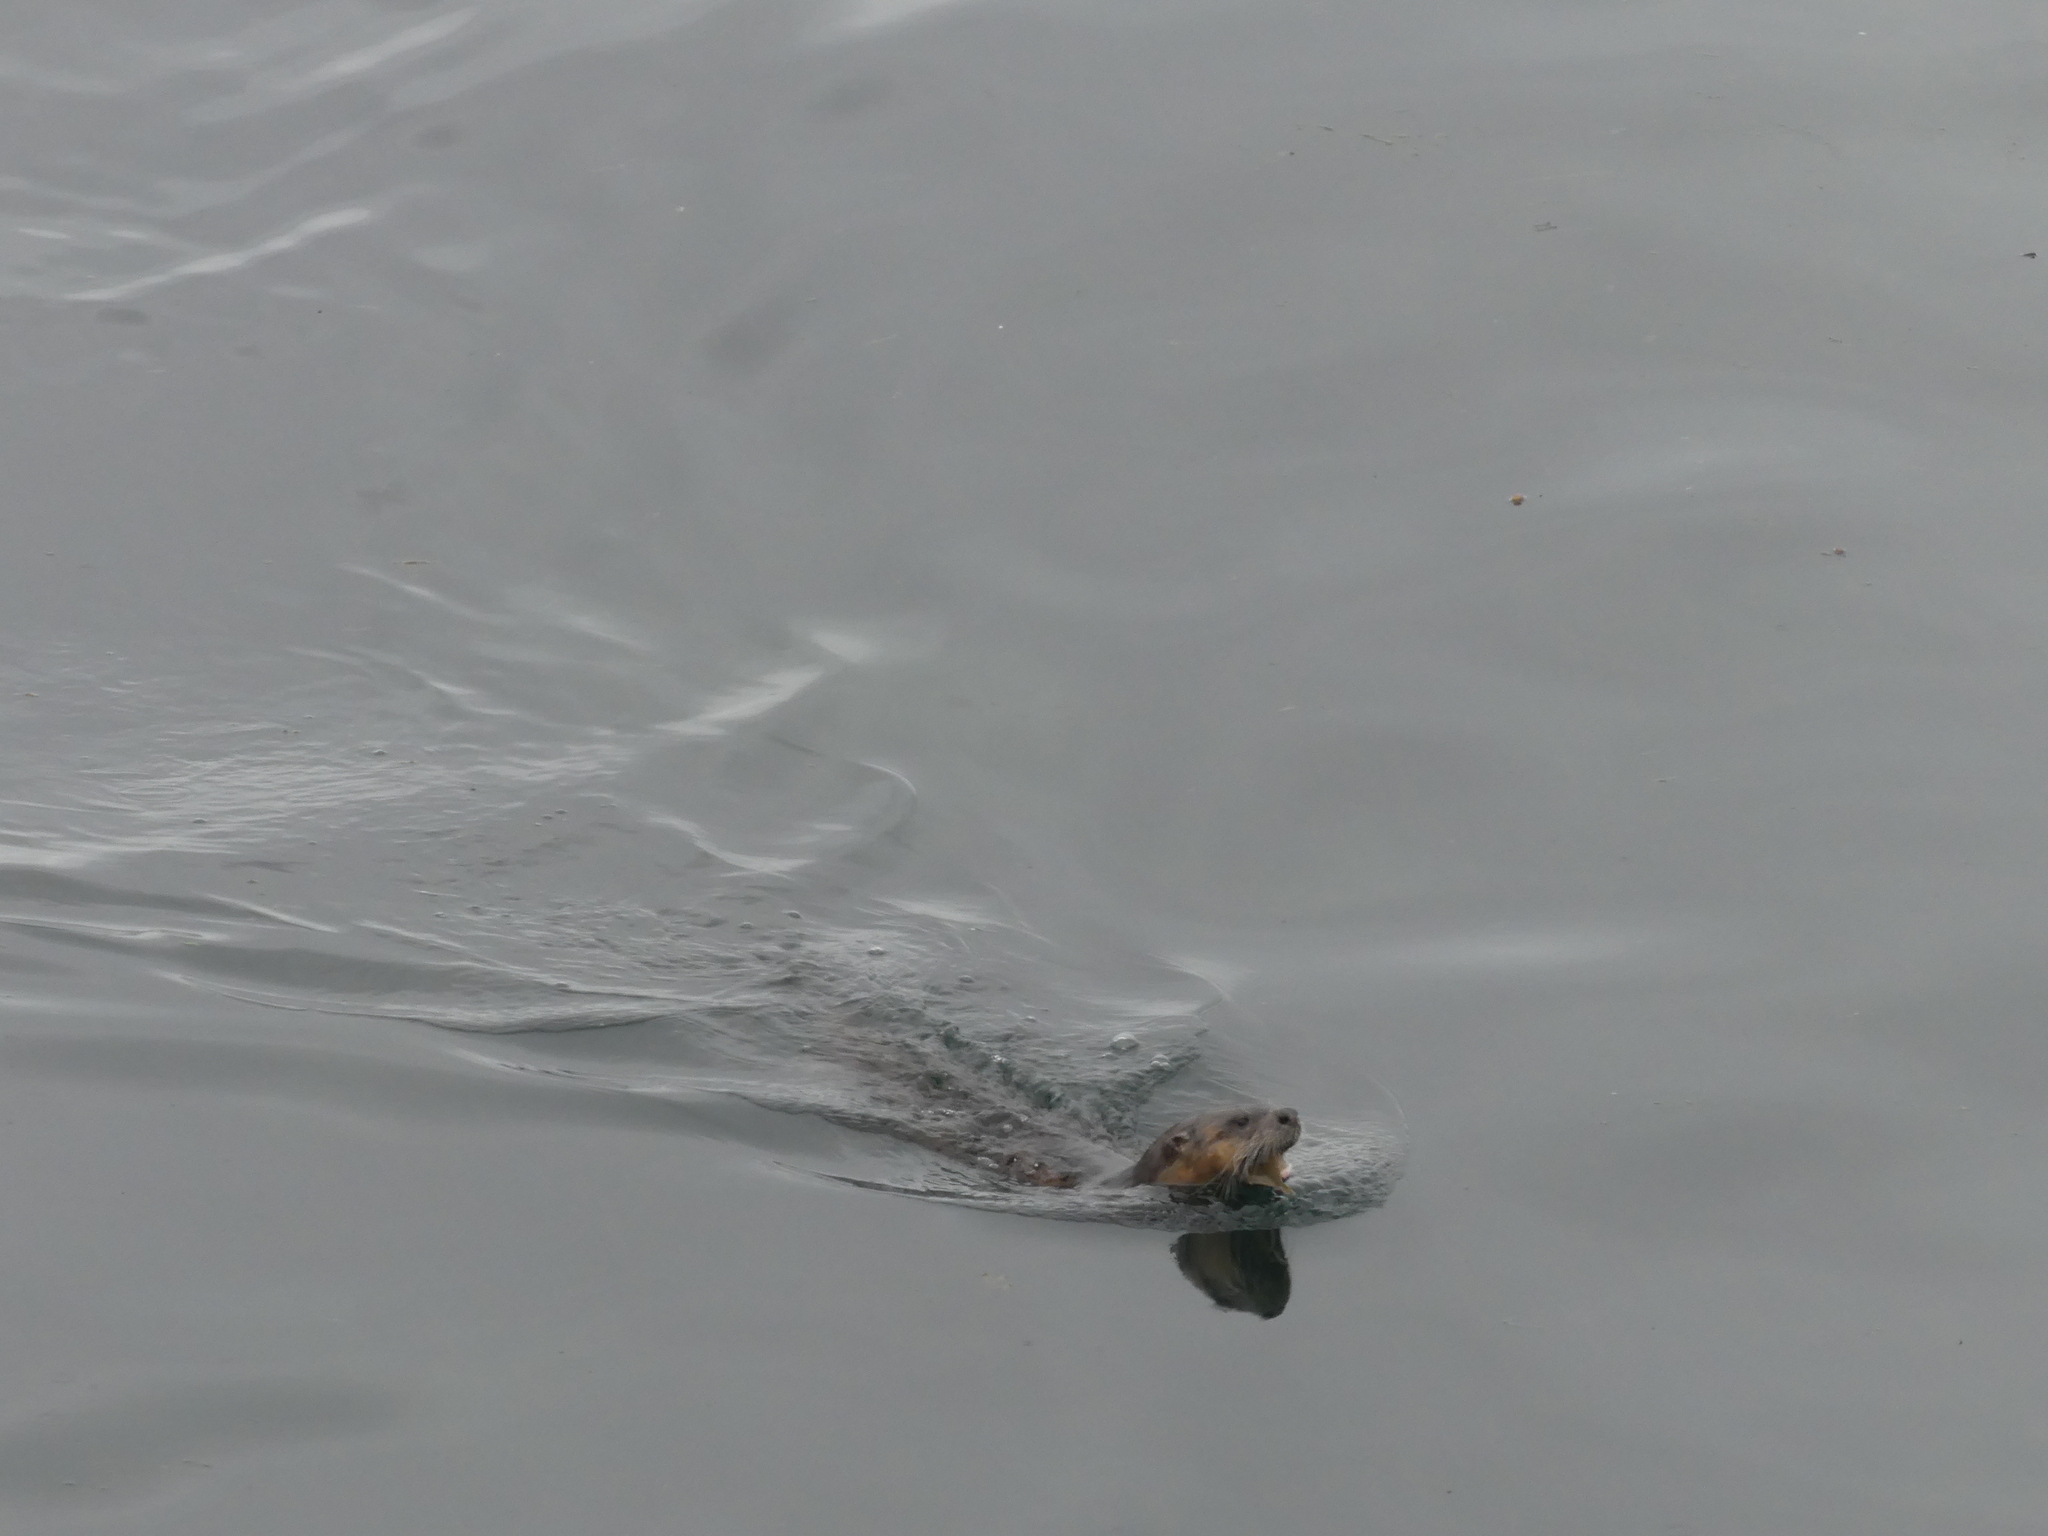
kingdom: Animalia
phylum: Chordata
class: Mammalia
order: Carnivora
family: Mustelidae
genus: Lontra
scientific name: Lontra canadensis
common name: North american river otter
